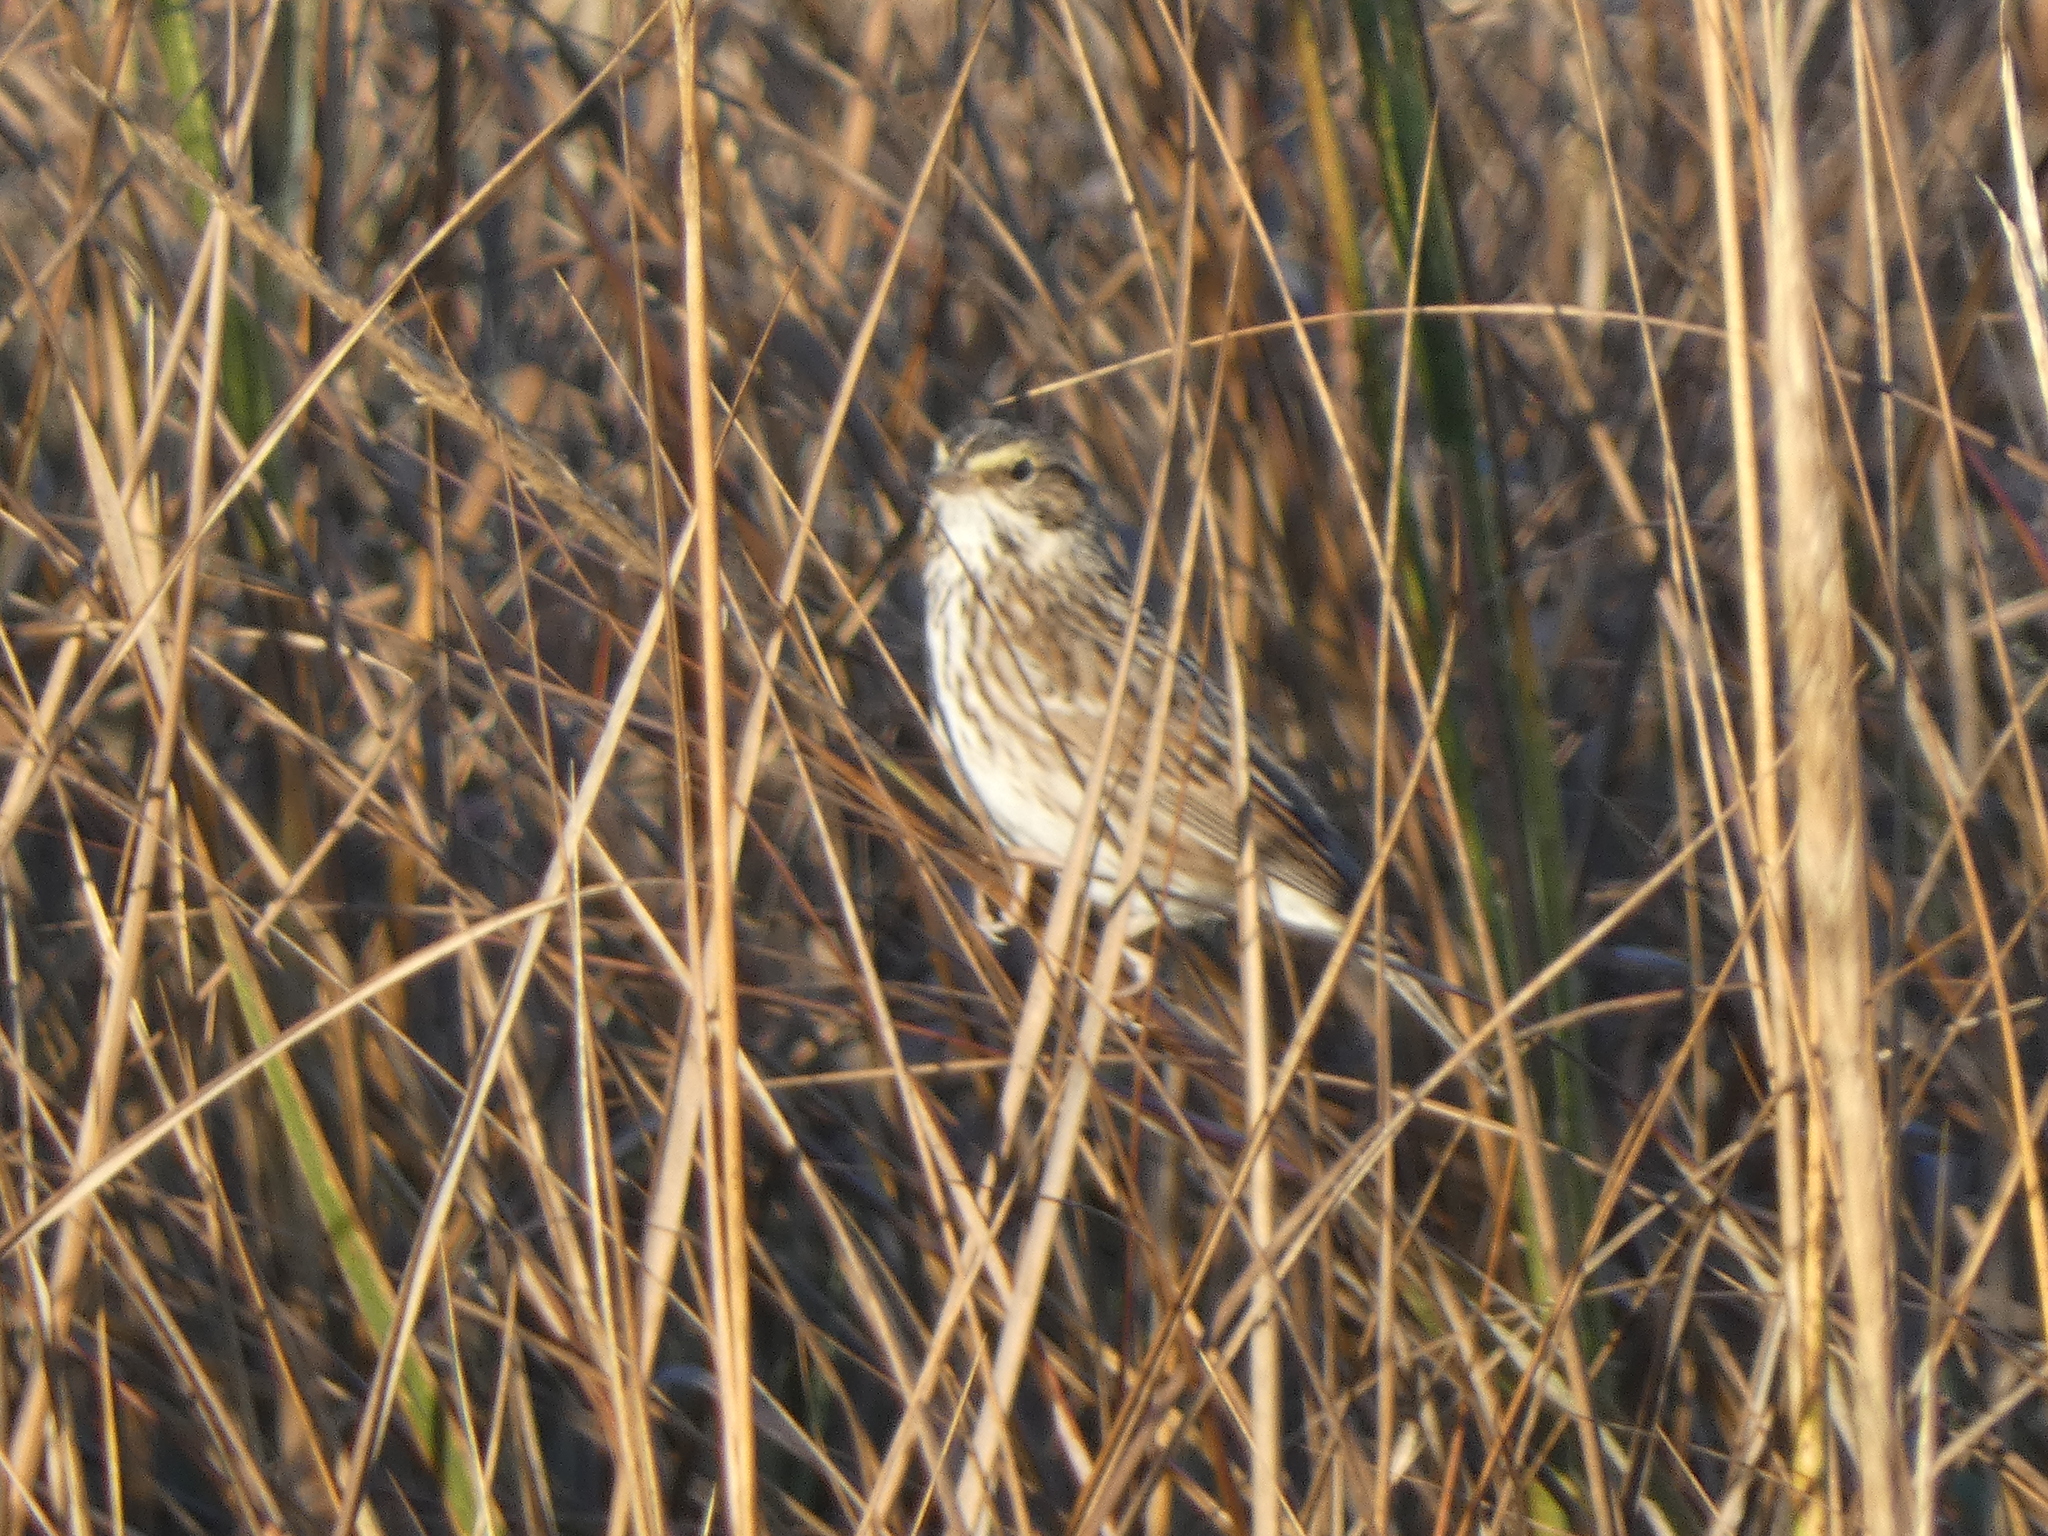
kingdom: Animalia
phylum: Chordata
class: Aves
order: Passeriformes
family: Passerellidae
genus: Passerculus
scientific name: Passerculus sandwichensis
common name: Savannah sparrow
